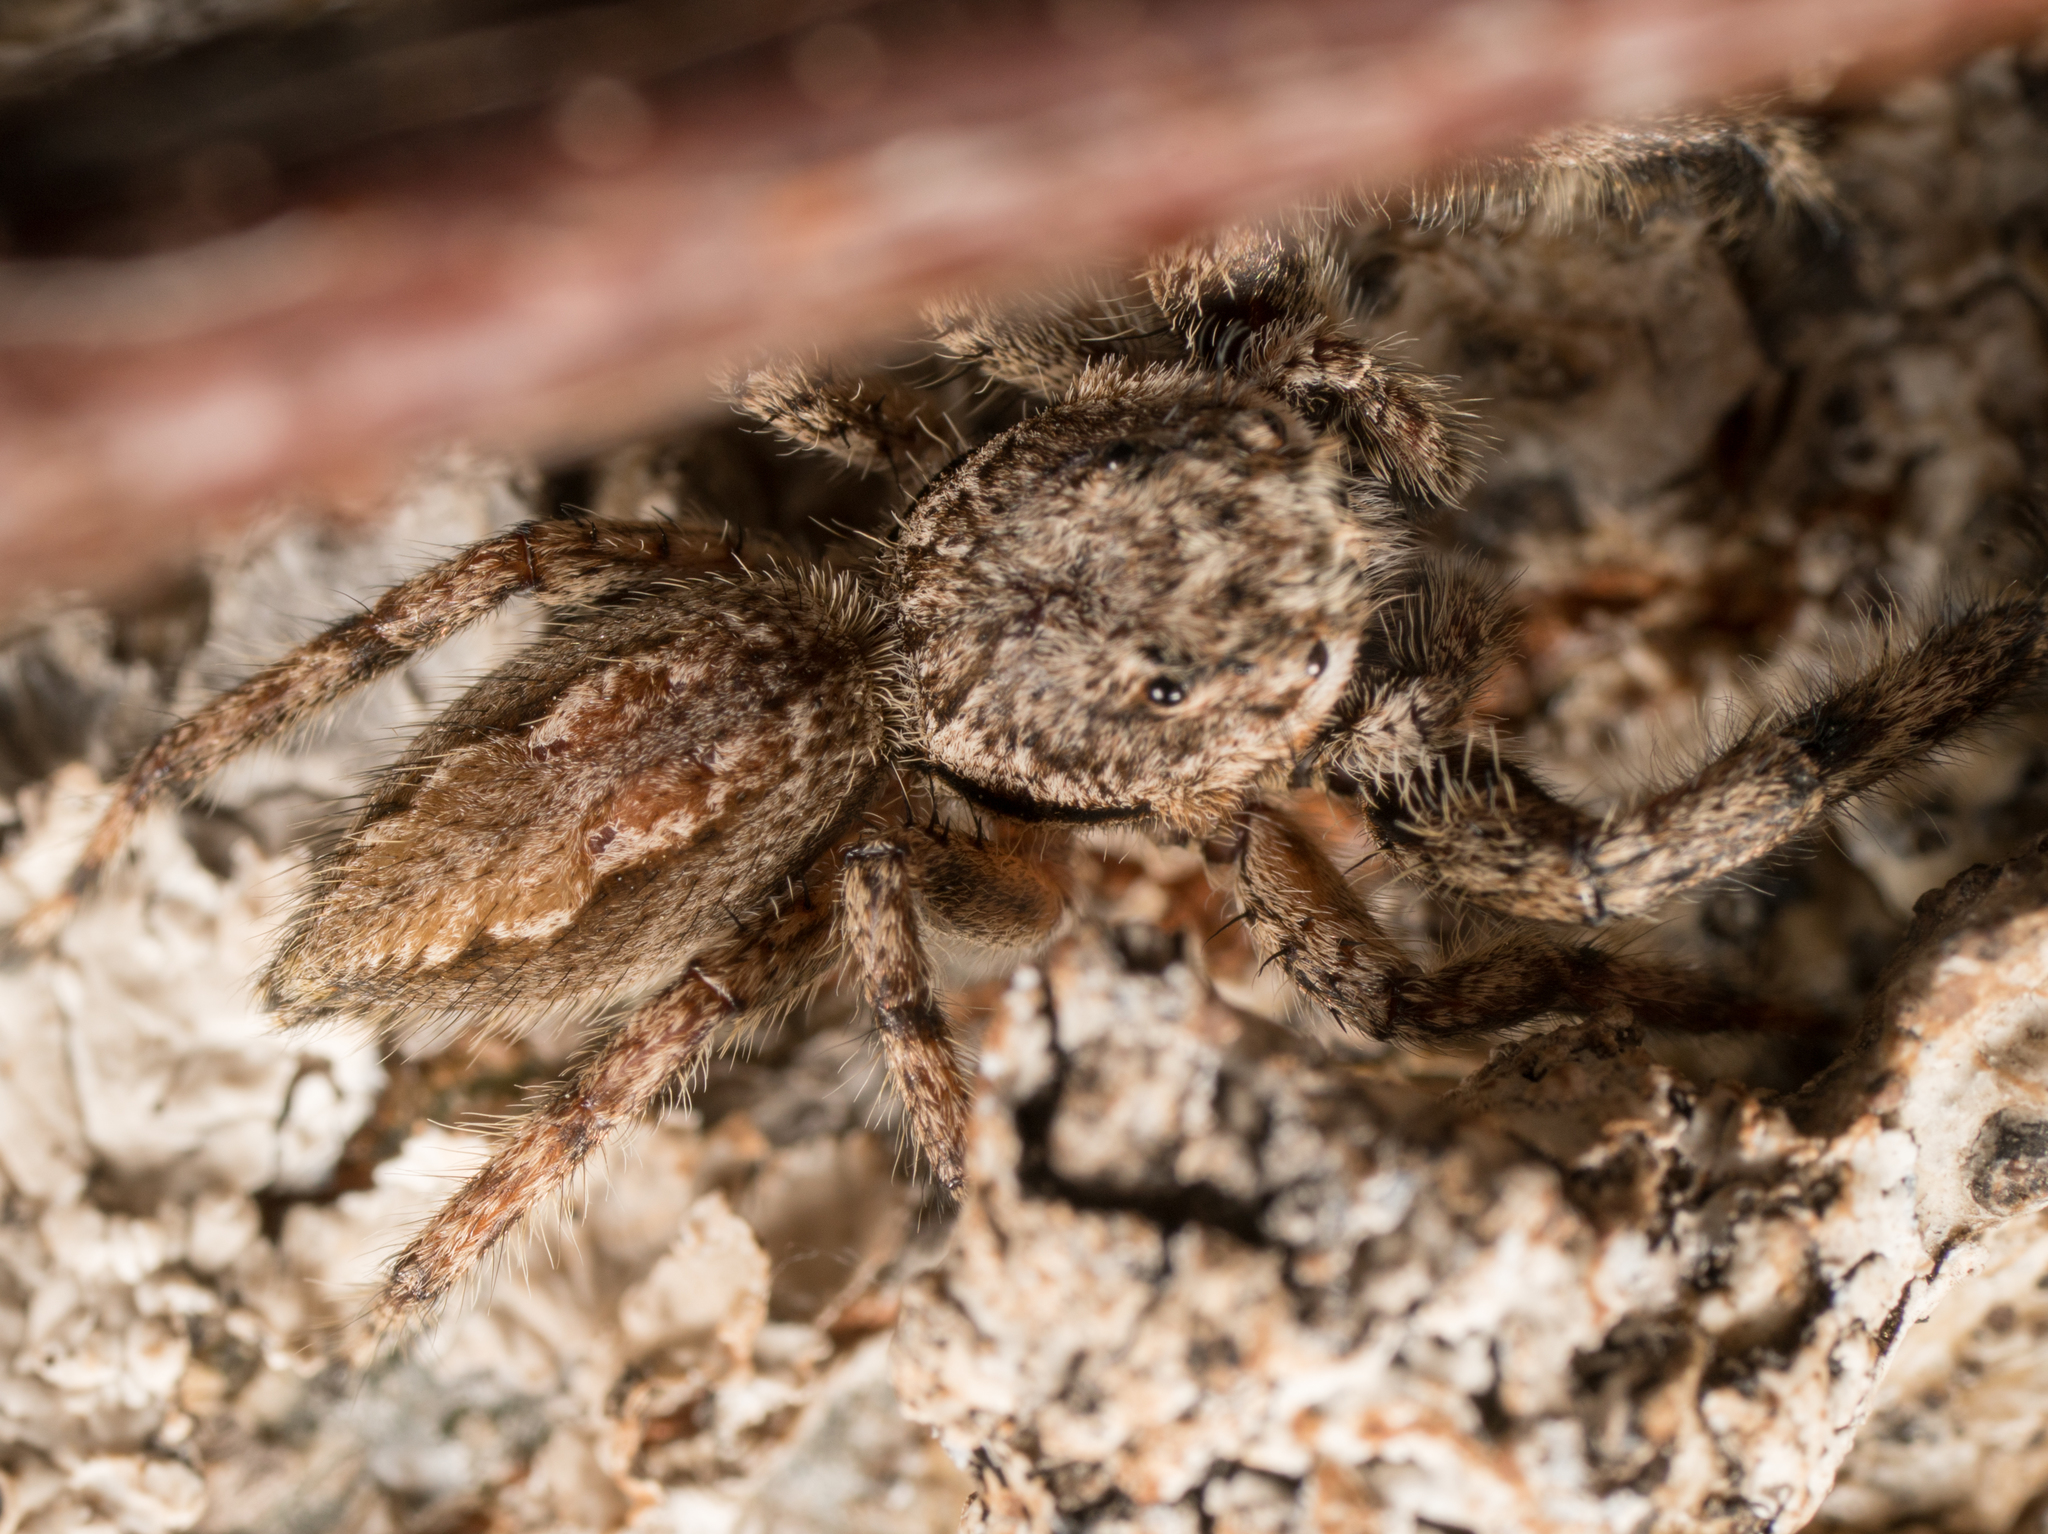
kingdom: Animalia
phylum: Arthropoda
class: Arachnida
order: Araneae
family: Salticidae
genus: Platycryptus
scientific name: Platycryptus undatus
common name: Tan jumping spider
